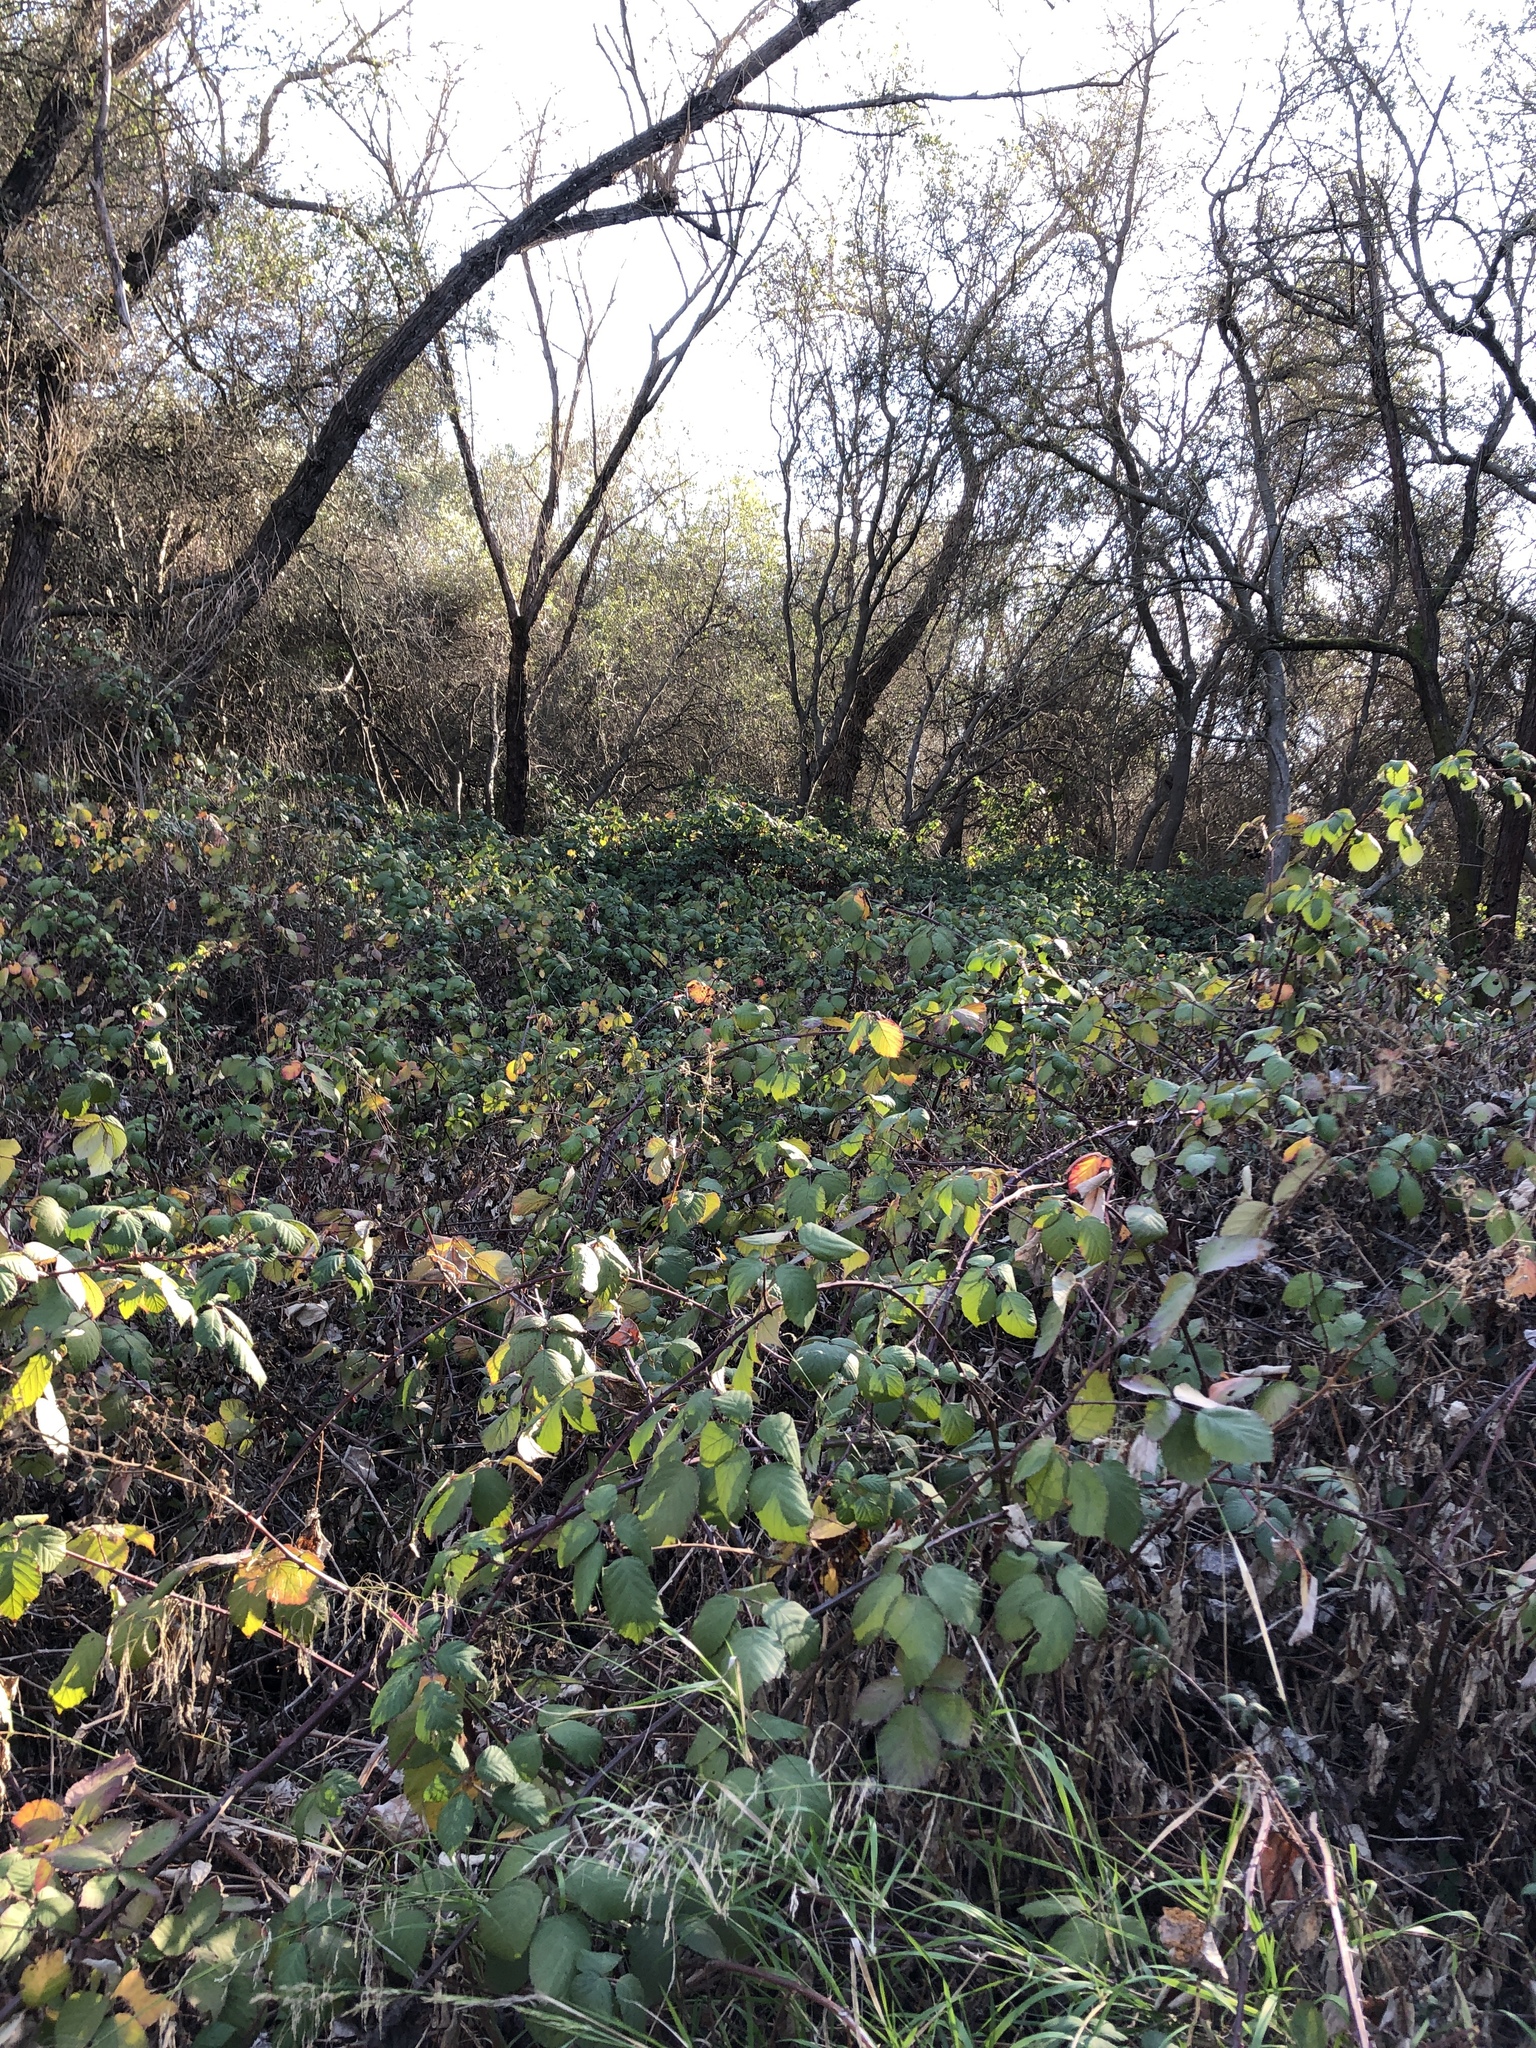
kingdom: Plantae
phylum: Tracheophyta
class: Magnoliopsida
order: Rosales
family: Rosaceae
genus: Rubus
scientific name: Rubus armeniacus
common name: Himalayan blackberry
